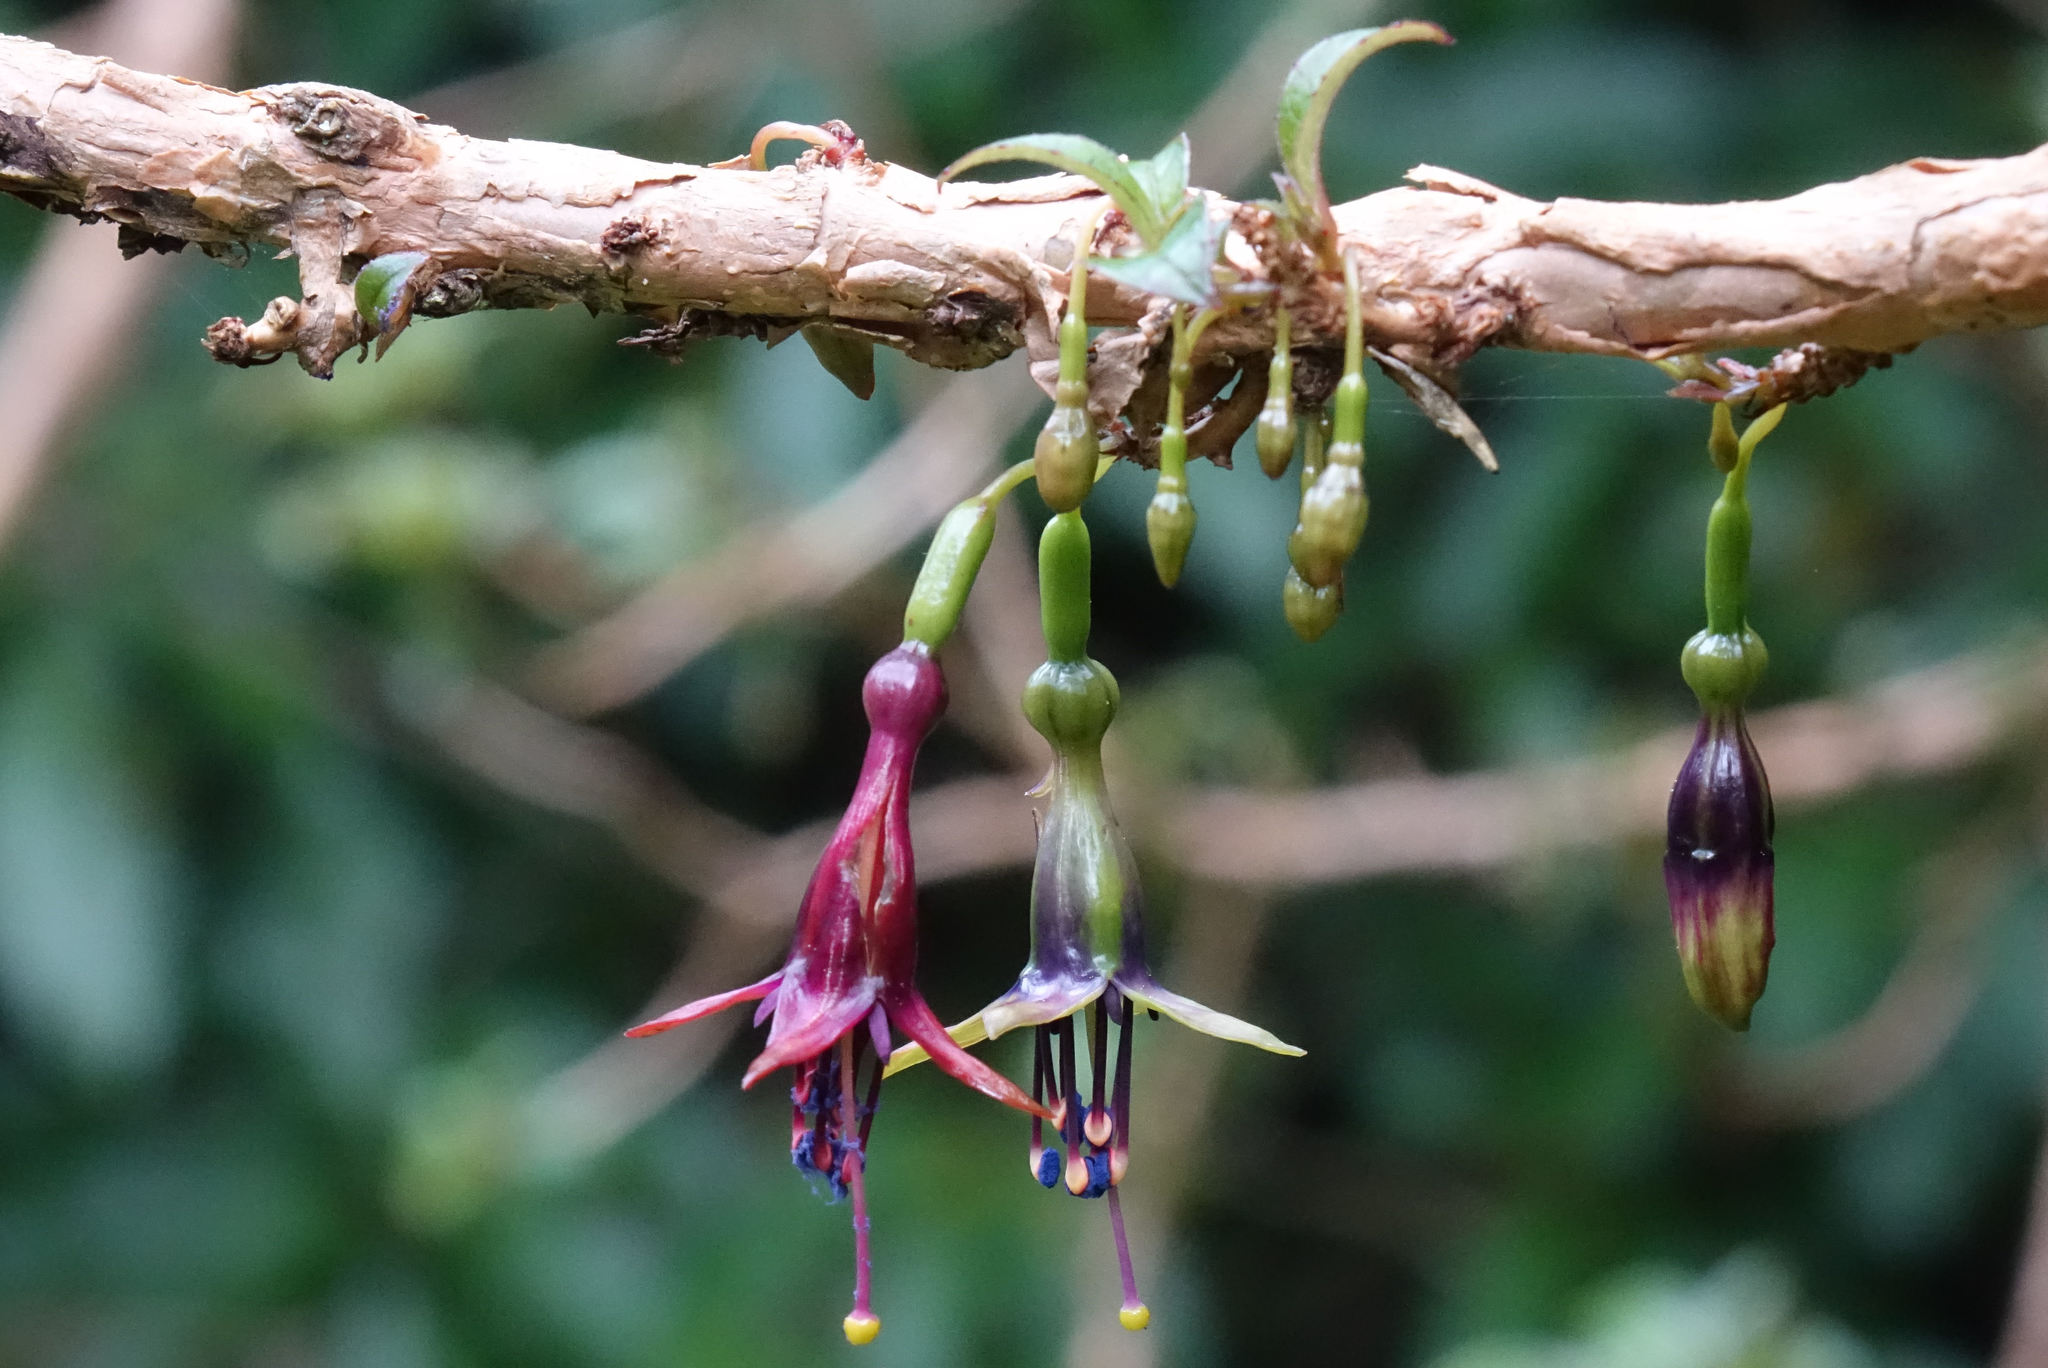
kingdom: Plantae
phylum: Tracheophyta
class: Magnoliopsida
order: Myrtales
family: Onagraceae
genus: Fuchsia
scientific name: Fuchsia excorticata
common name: Tree fuchsia
